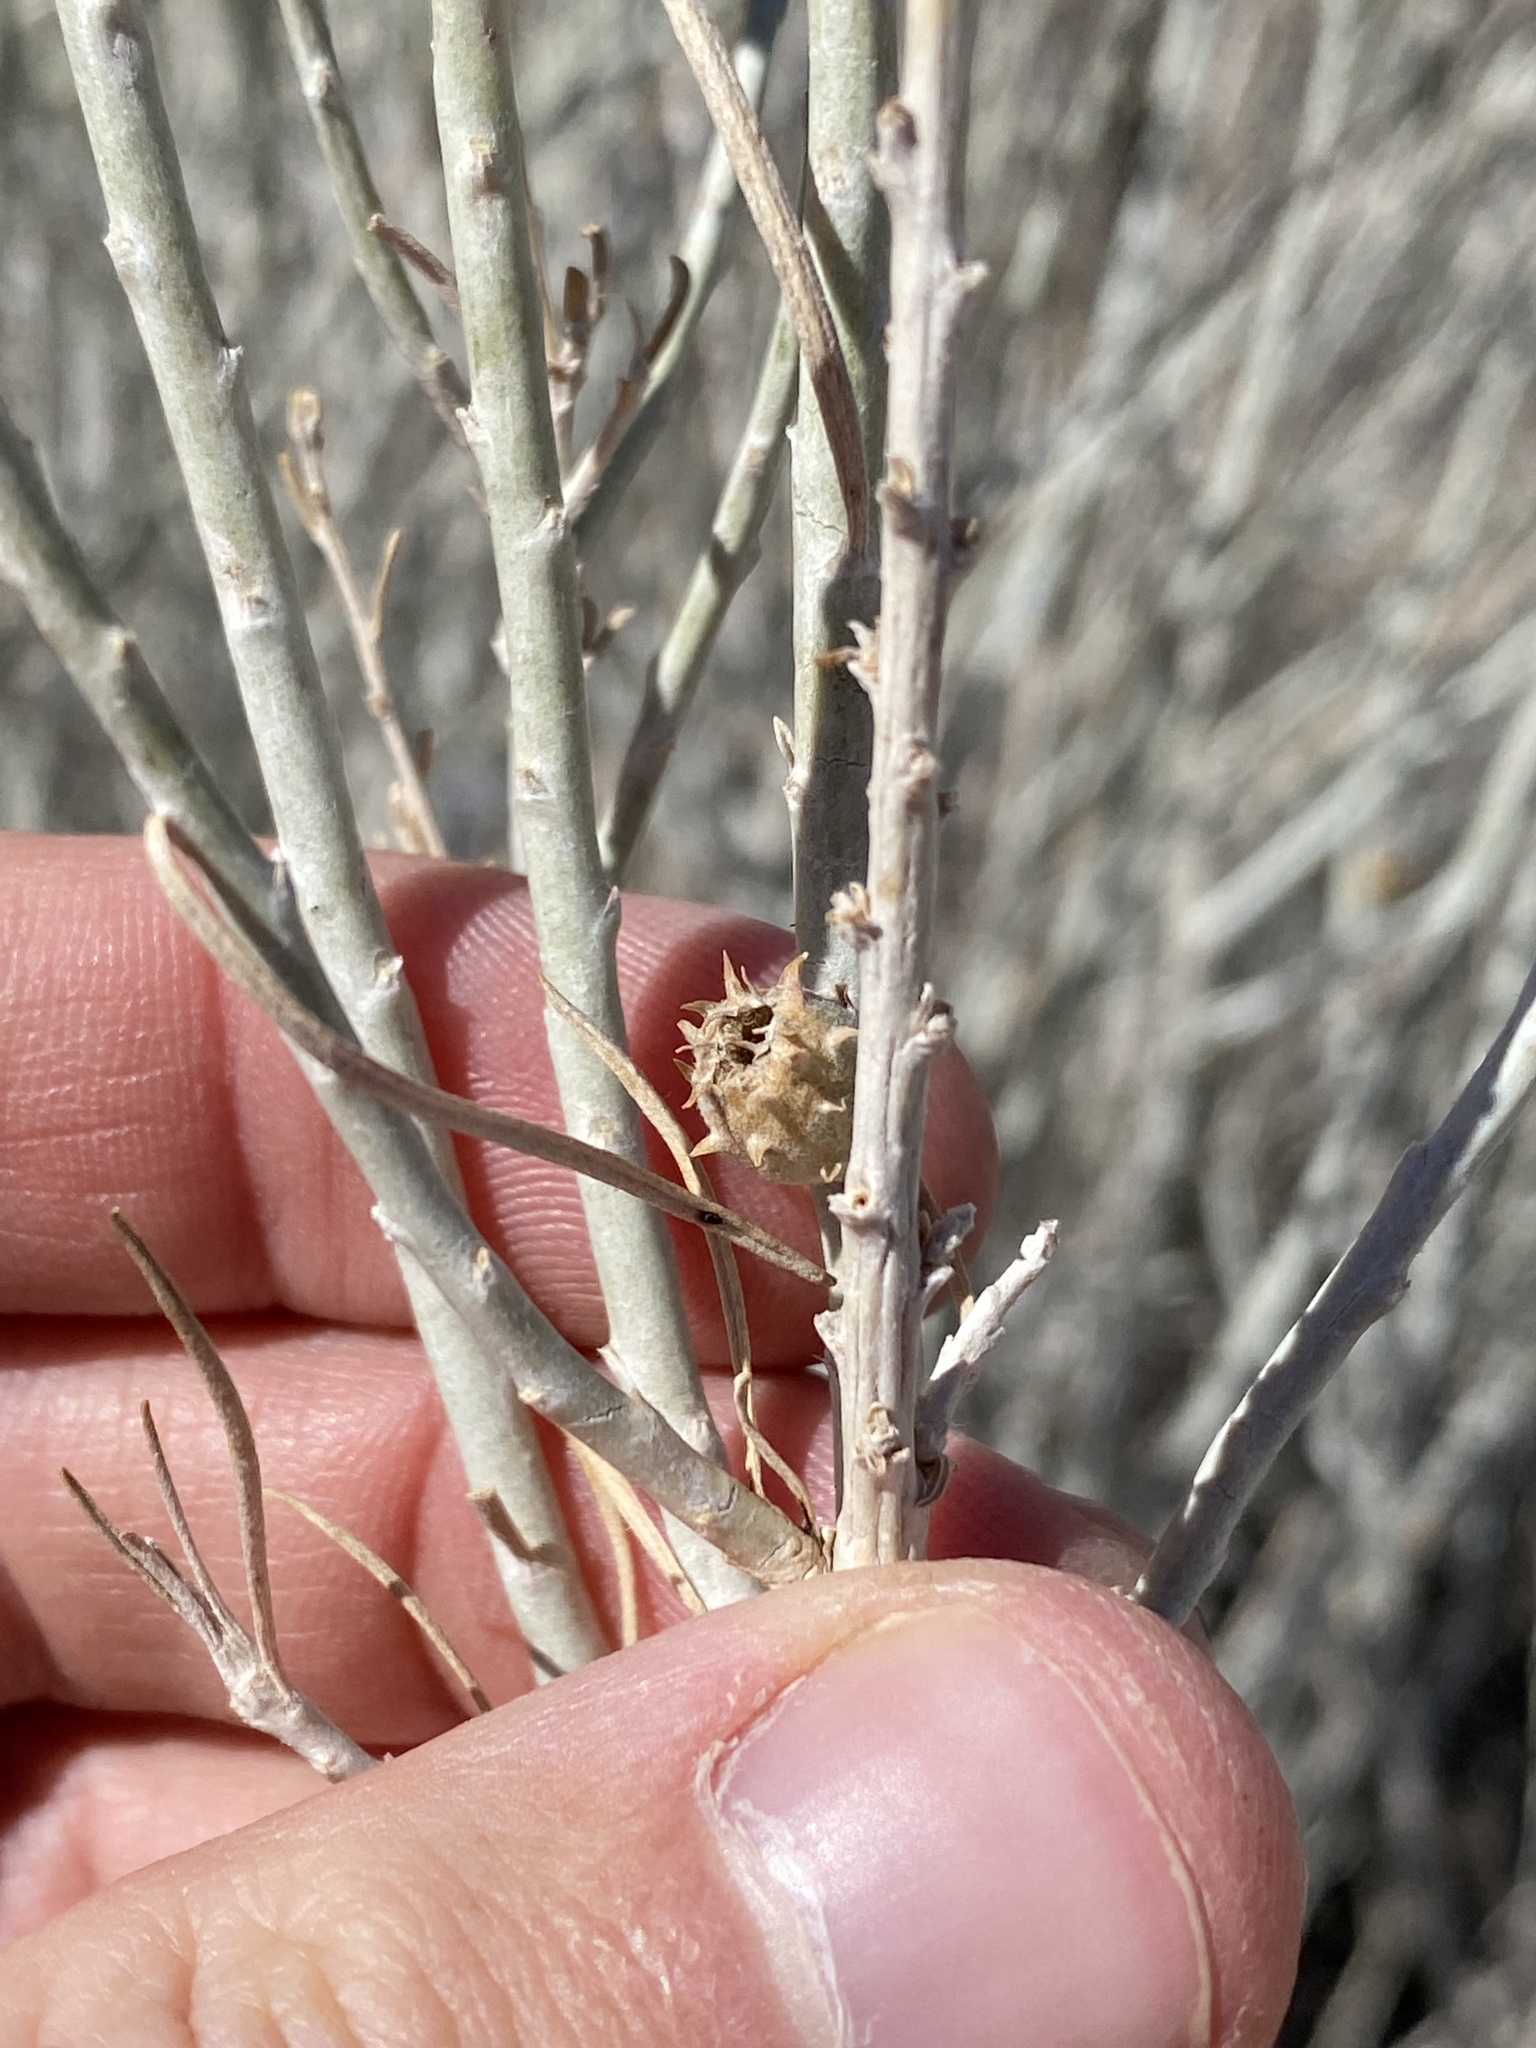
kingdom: Animalia
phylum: Arthropoda
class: Insecta
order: Diptera
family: Cecidomyiidae
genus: Rhopalomyia
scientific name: Rhopalomyia utahensis
